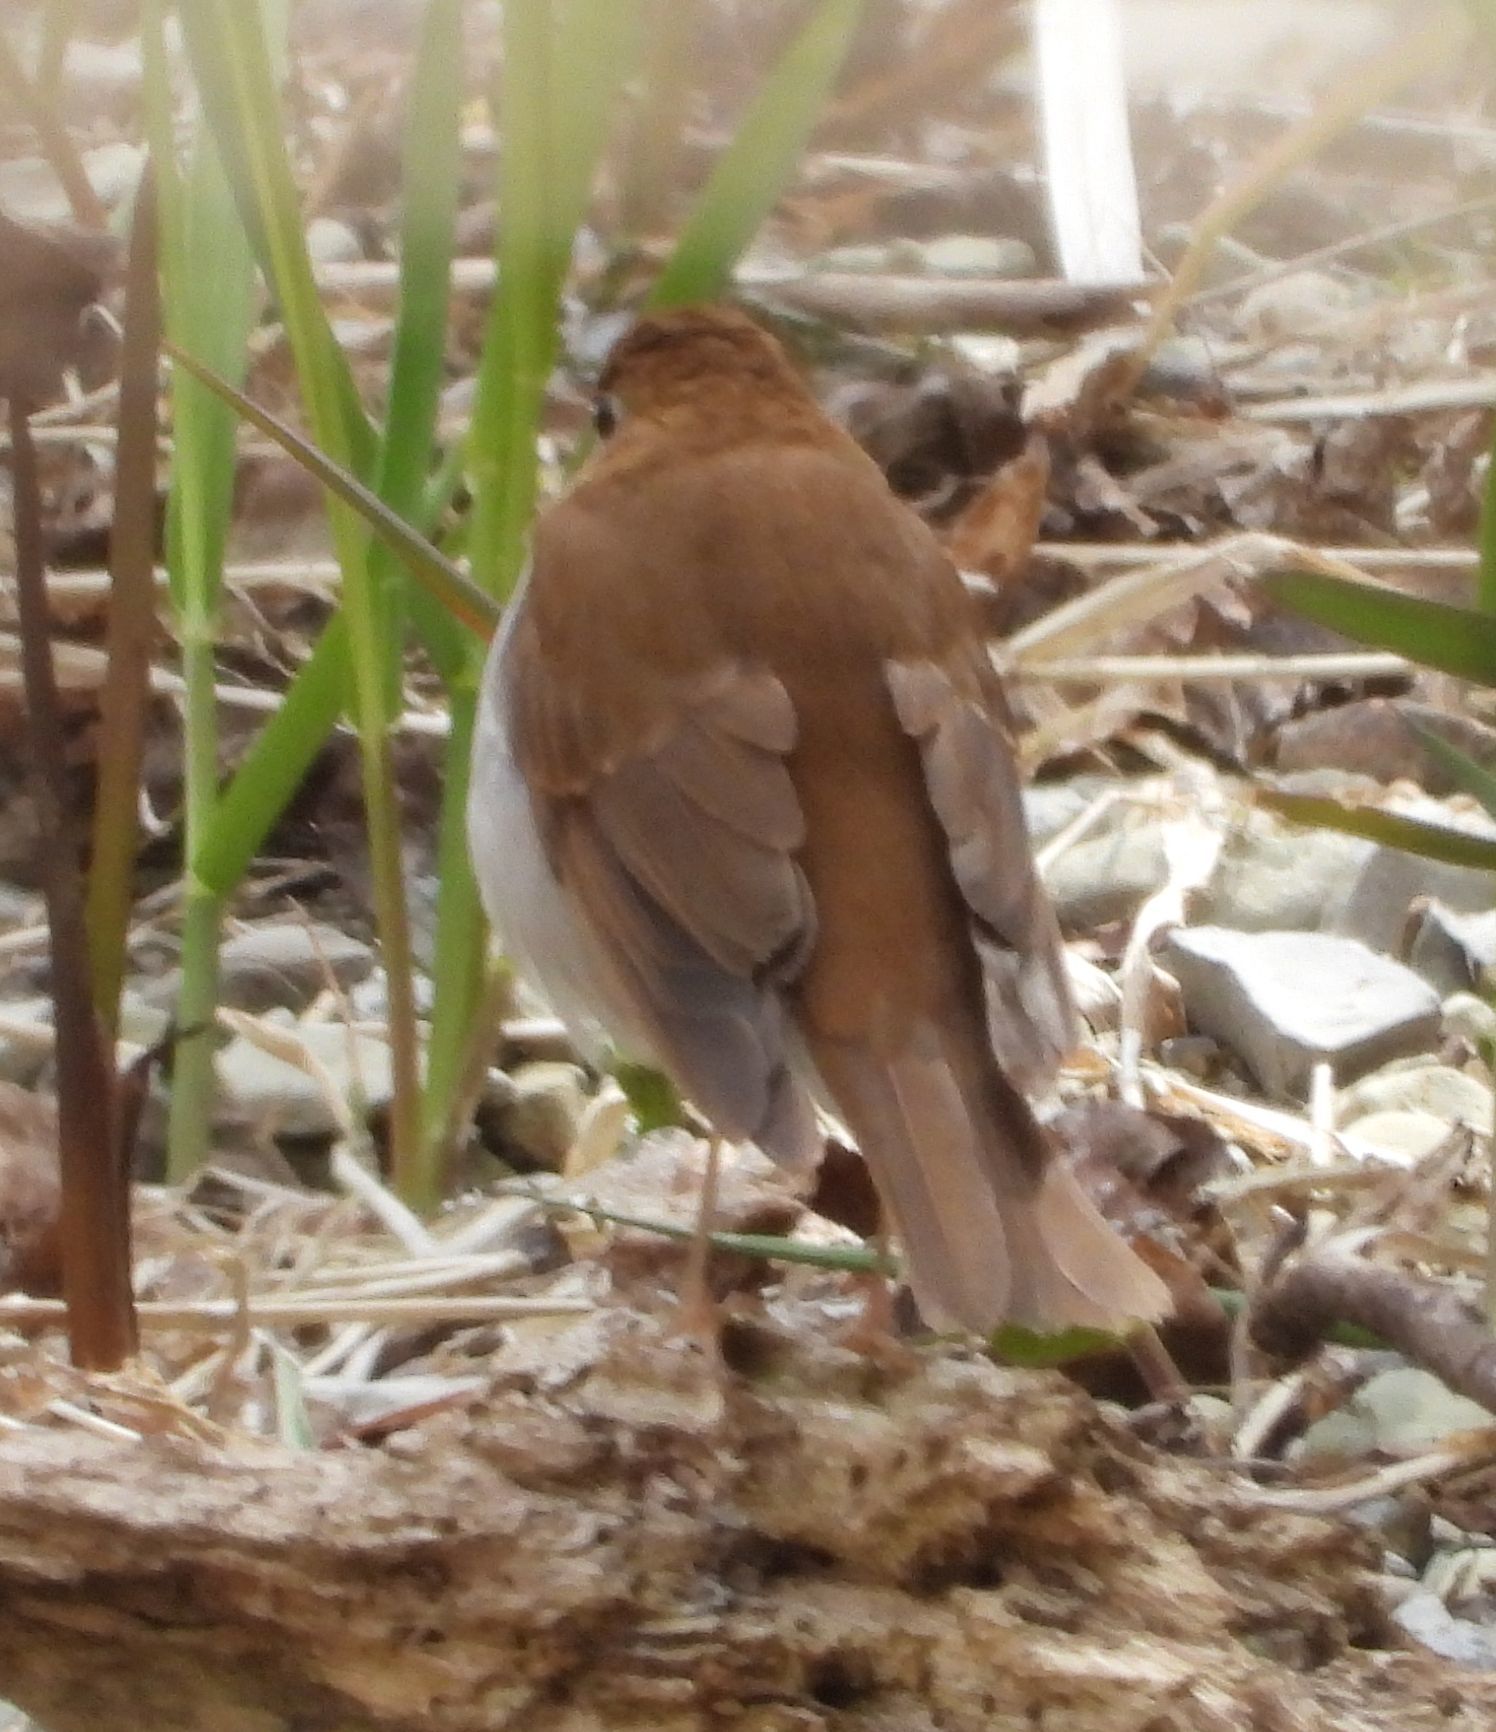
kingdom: Animalia
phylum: Chordata
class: Aves
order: Passeriformes
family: Turdidae
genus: Catharus
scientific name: Catharus fuscescens
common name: Veery
